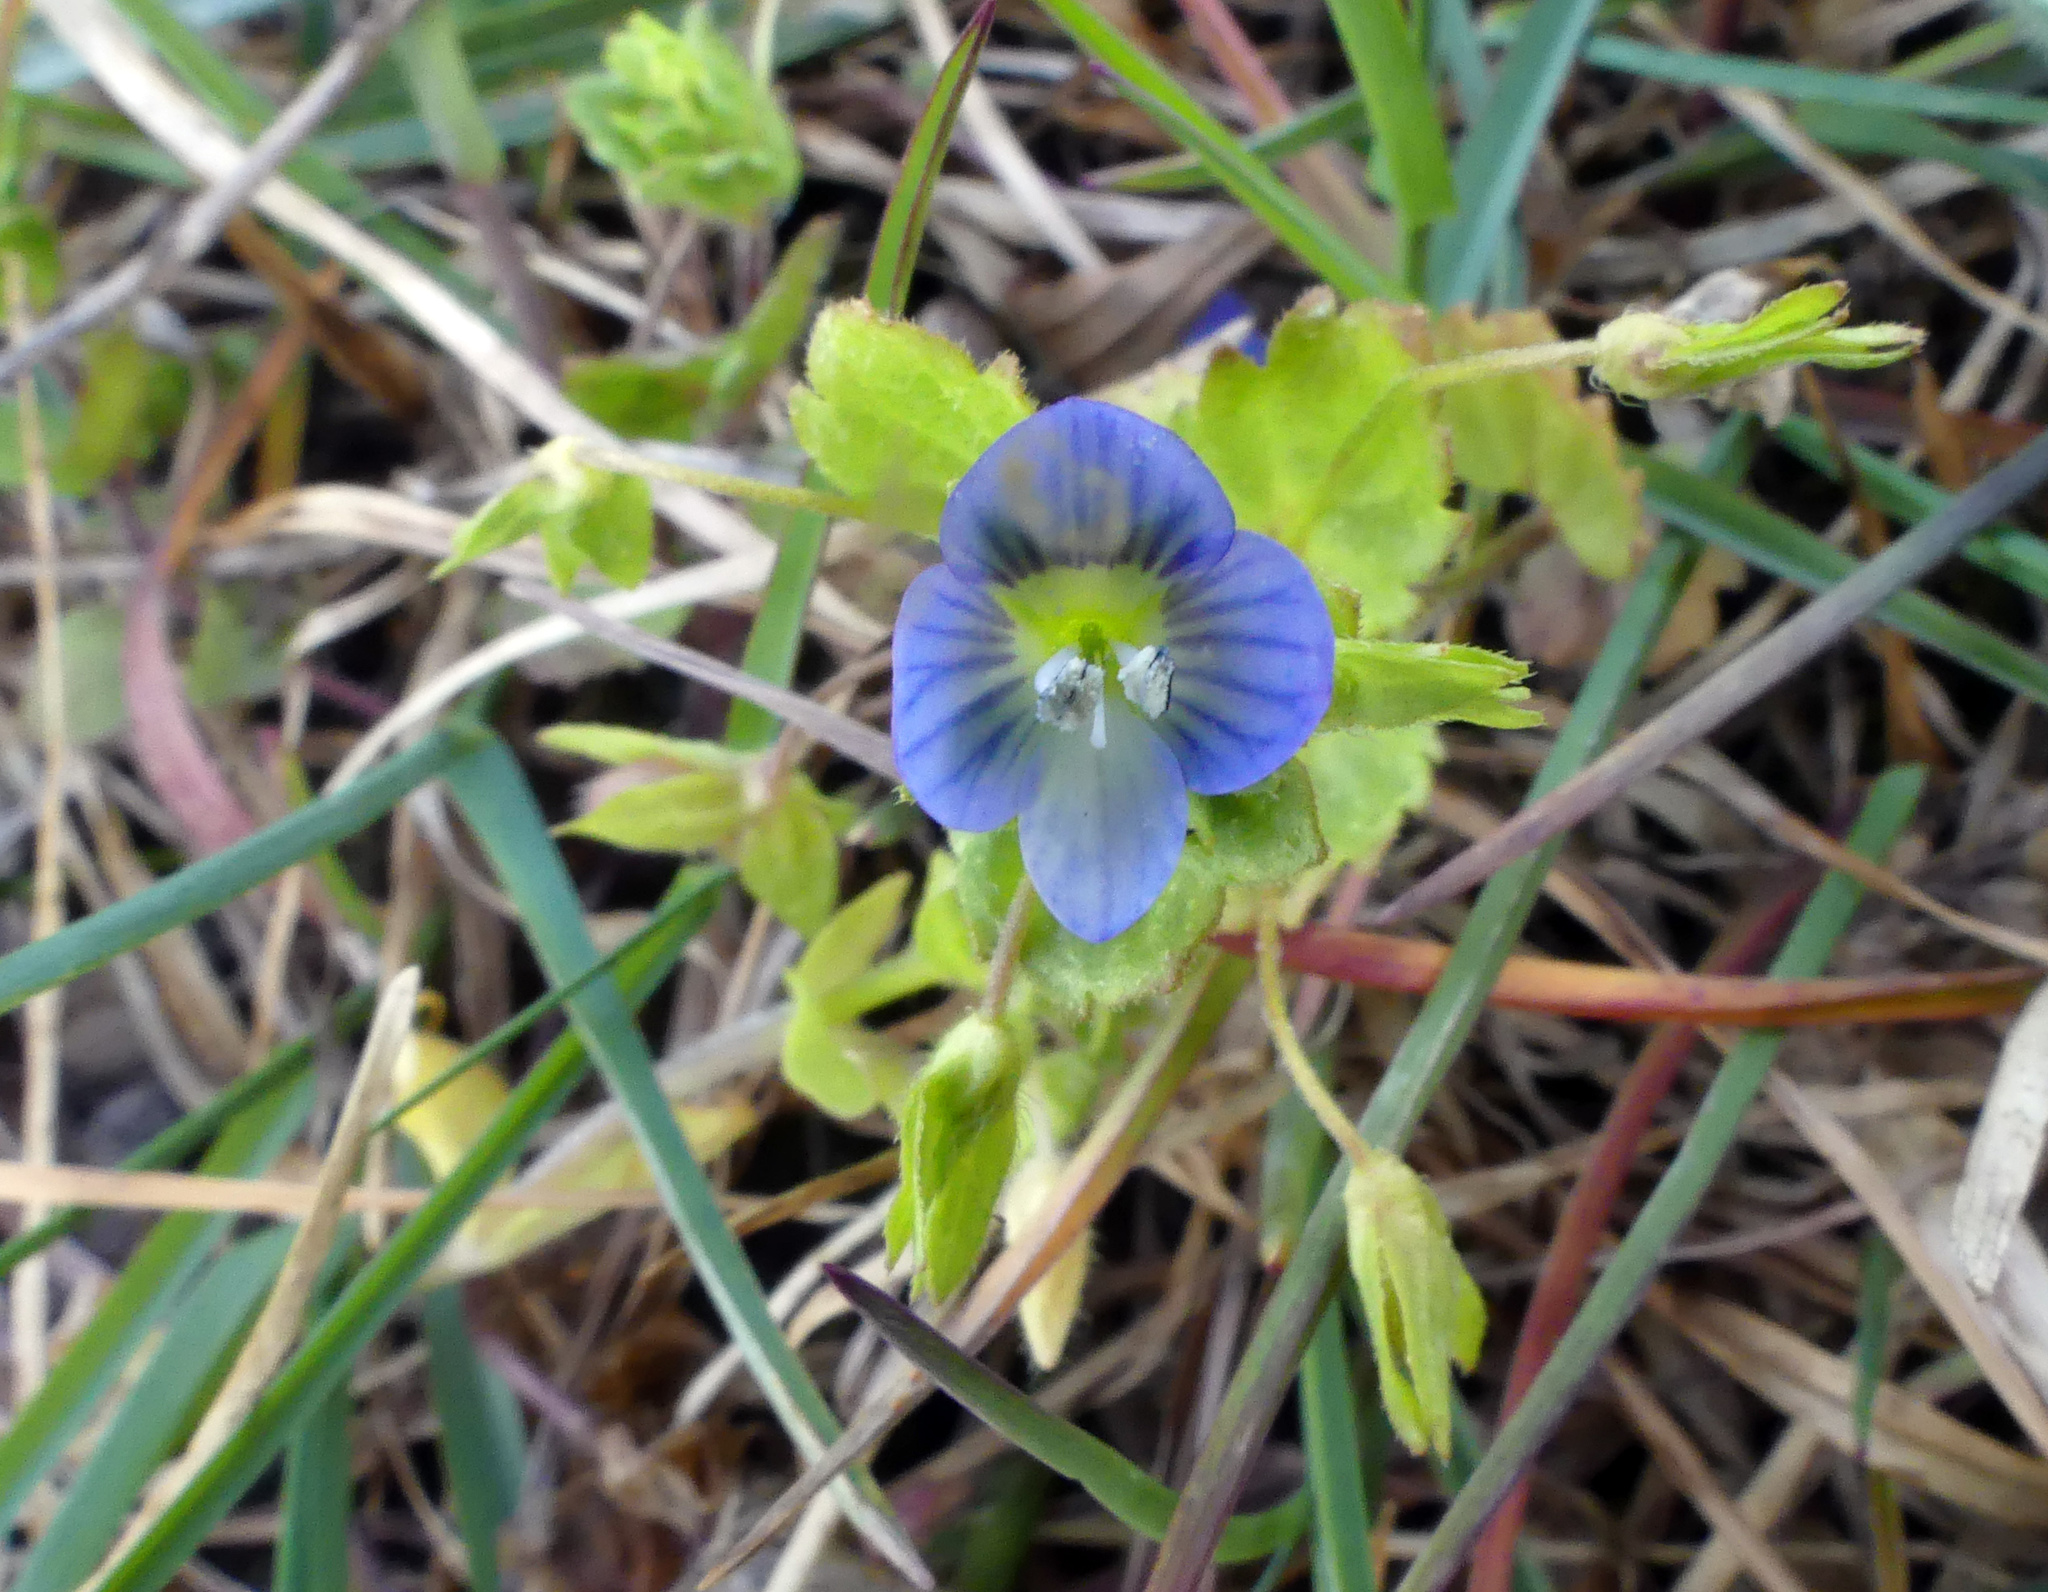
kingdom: Plantae
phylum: Tracheophyta
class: Magnoliopsida
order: Lamiales
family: Plantaginaceae
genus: Veronica
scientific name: Veronica persica
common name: Common field-speedwell
